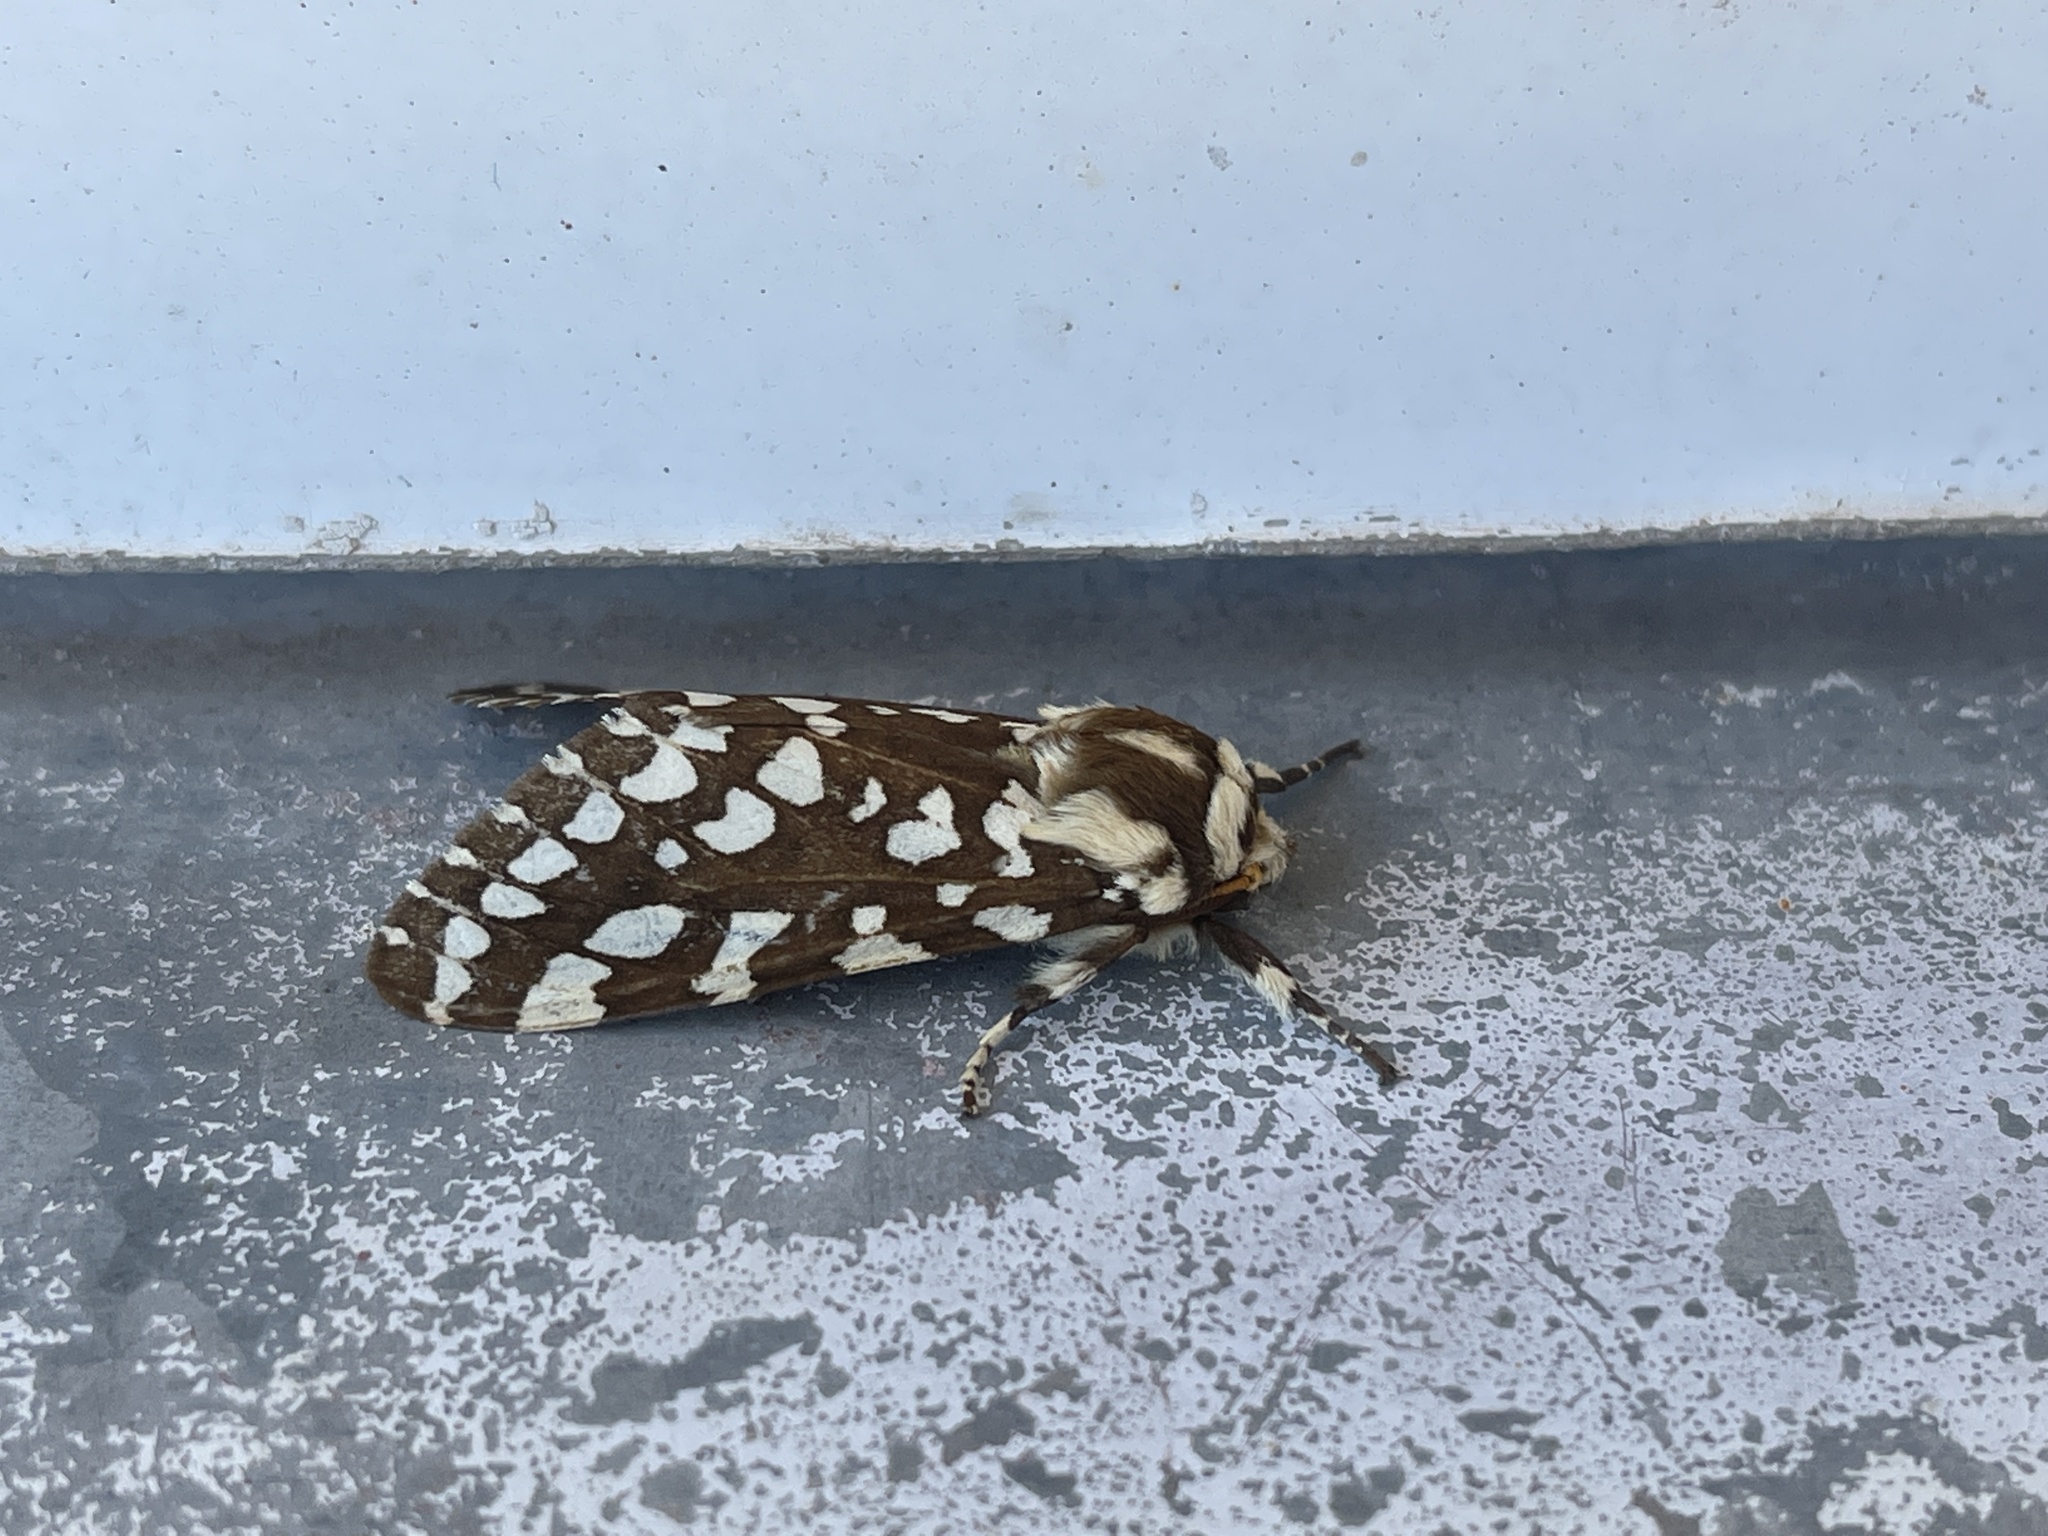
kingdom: Animalia
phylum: Arthropoda
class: Insecta
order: Lepidoptera
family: Erebidae
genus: Lophocampa
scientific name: Lophocampa ingens
